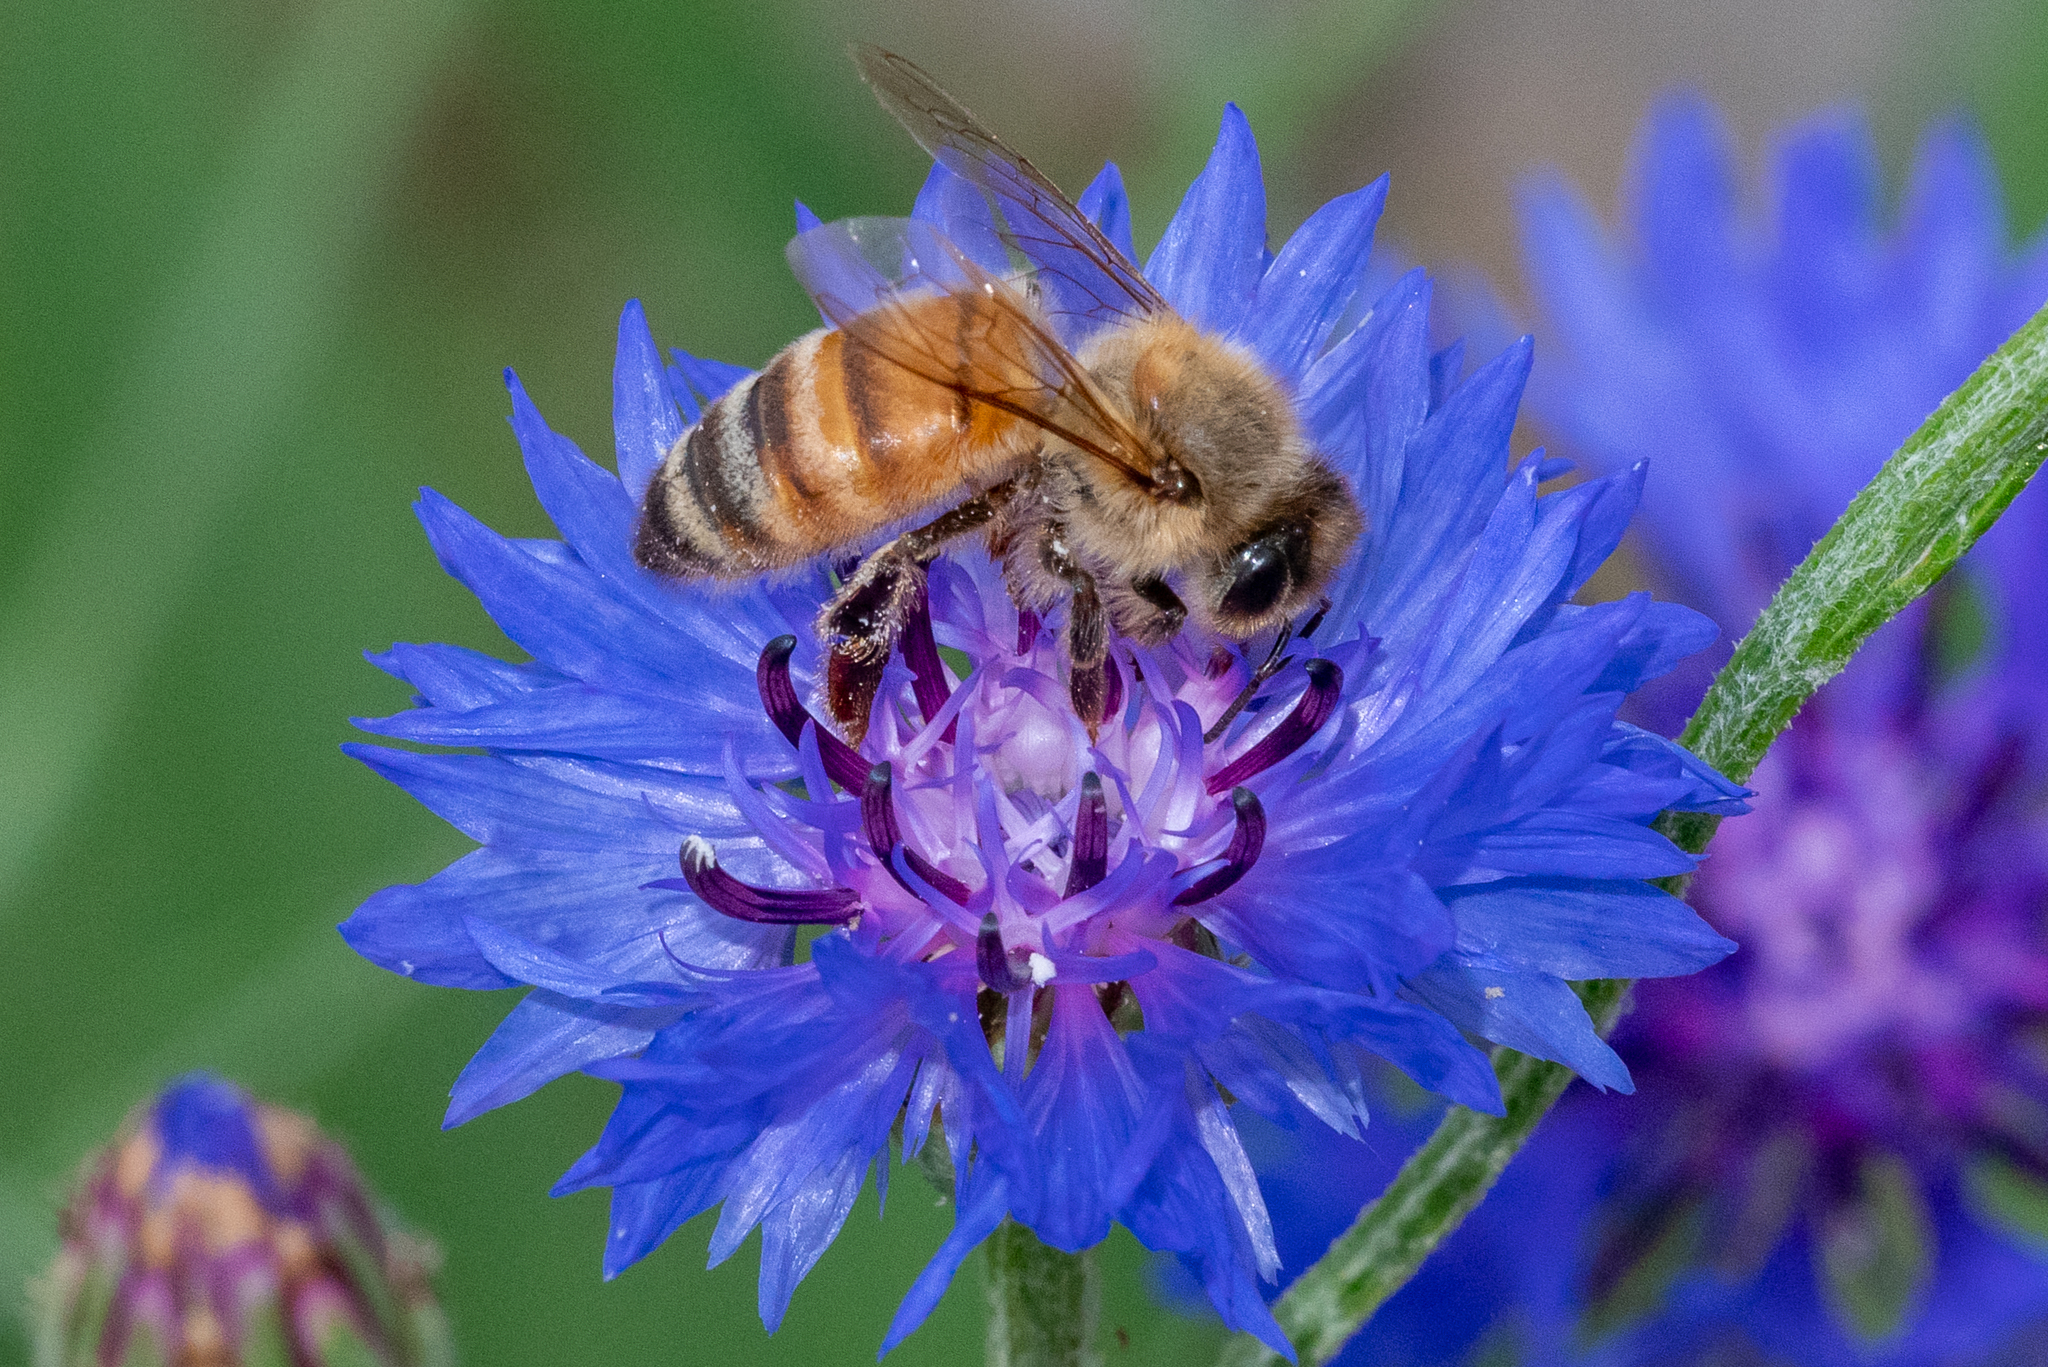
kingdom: Animalia
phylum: Arthropoda
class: Insecta
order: Hymenoptera
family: Apidae
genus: Apis
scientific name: Apis mellifera
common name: Honey bee
